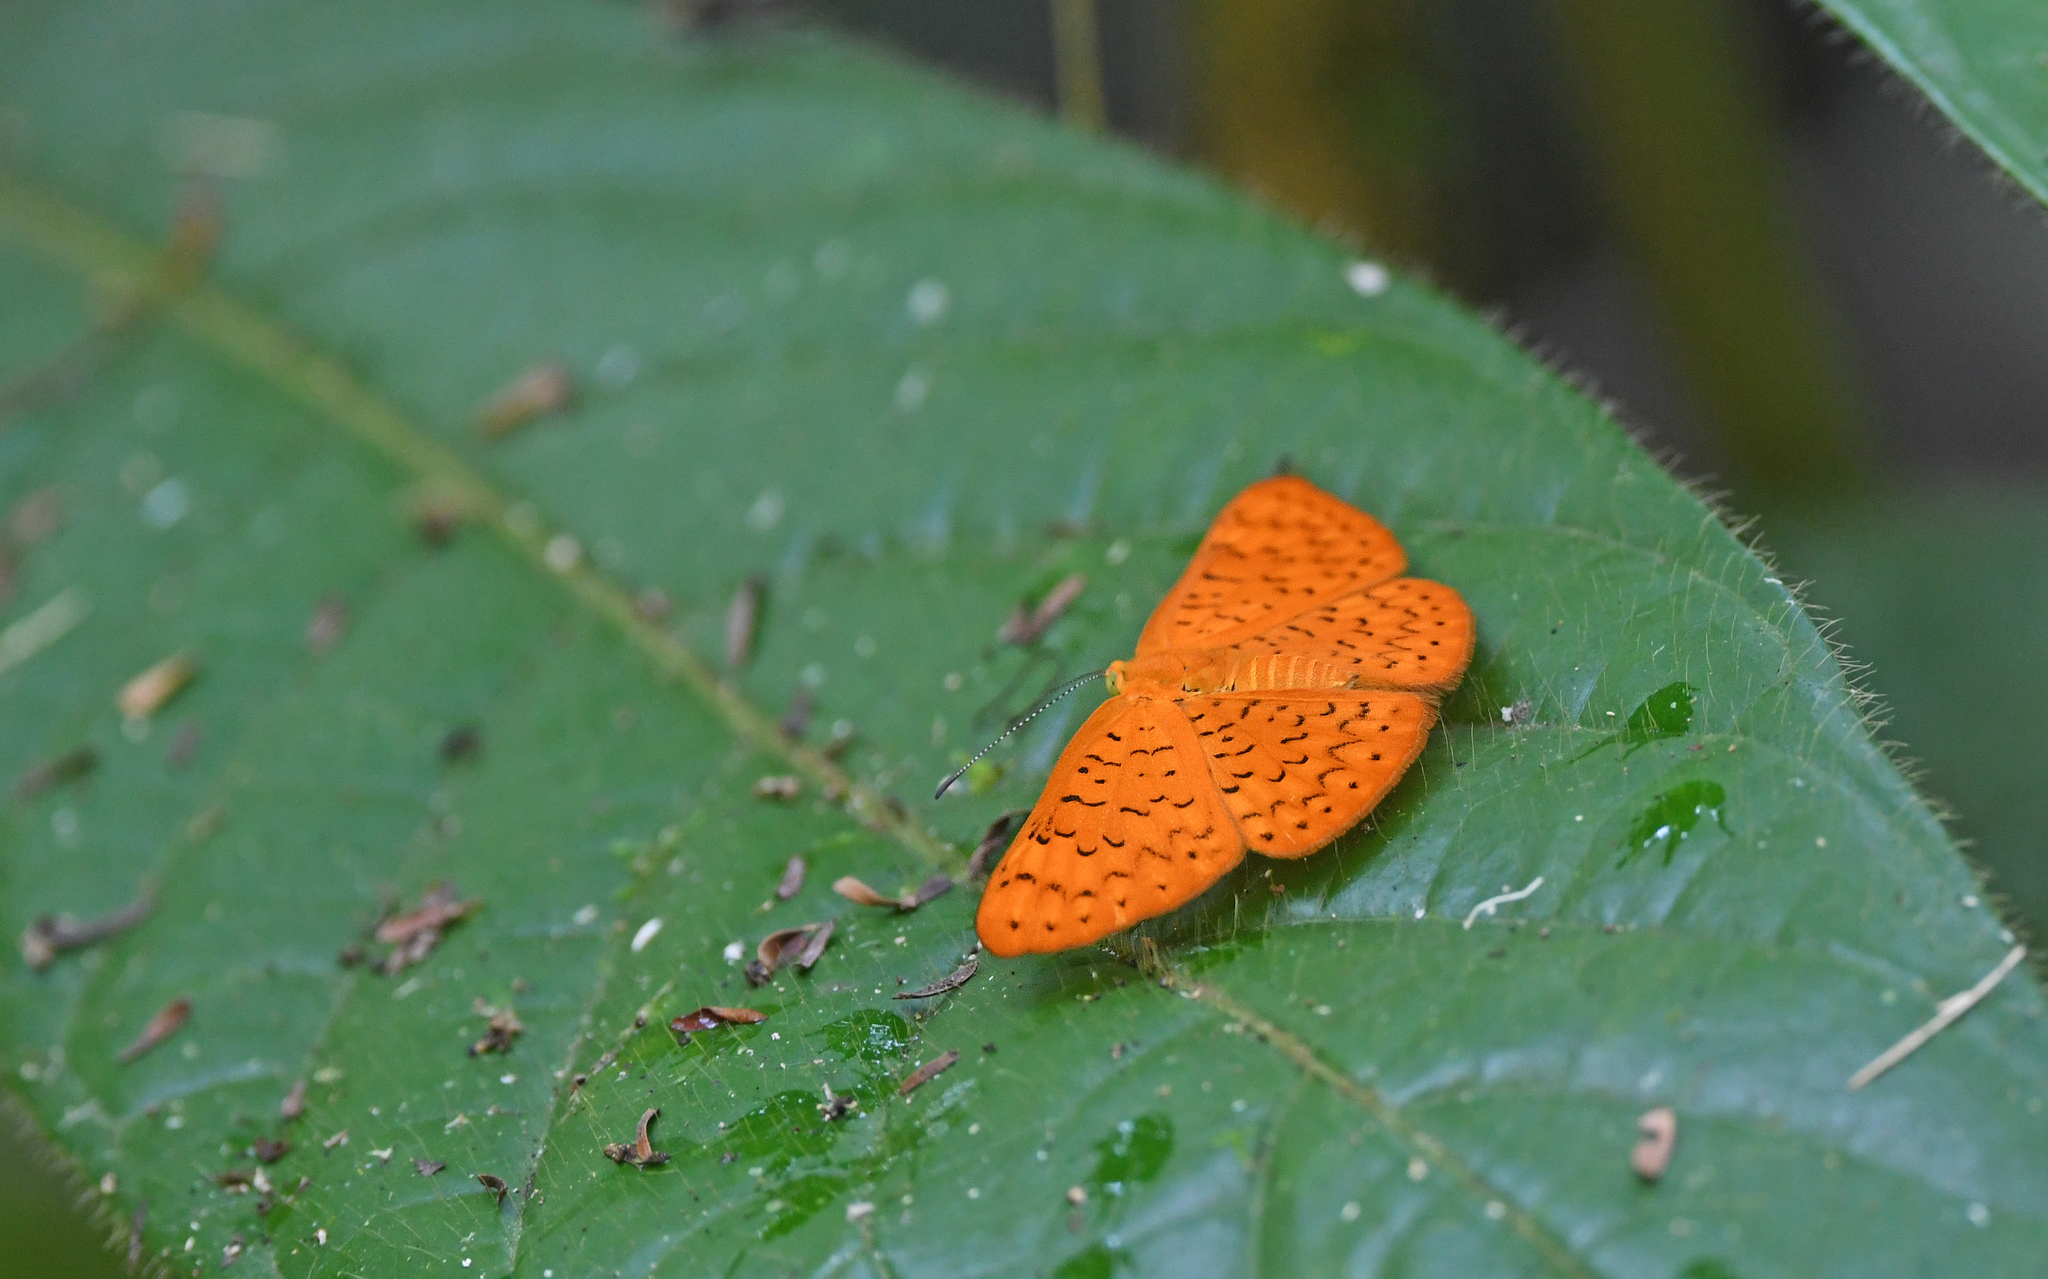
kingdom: Animalia
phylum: Arthropoda
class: Insecta
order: Lepidoptera
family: Lycaenidae
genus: Emesis
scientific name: Emesis fatima
